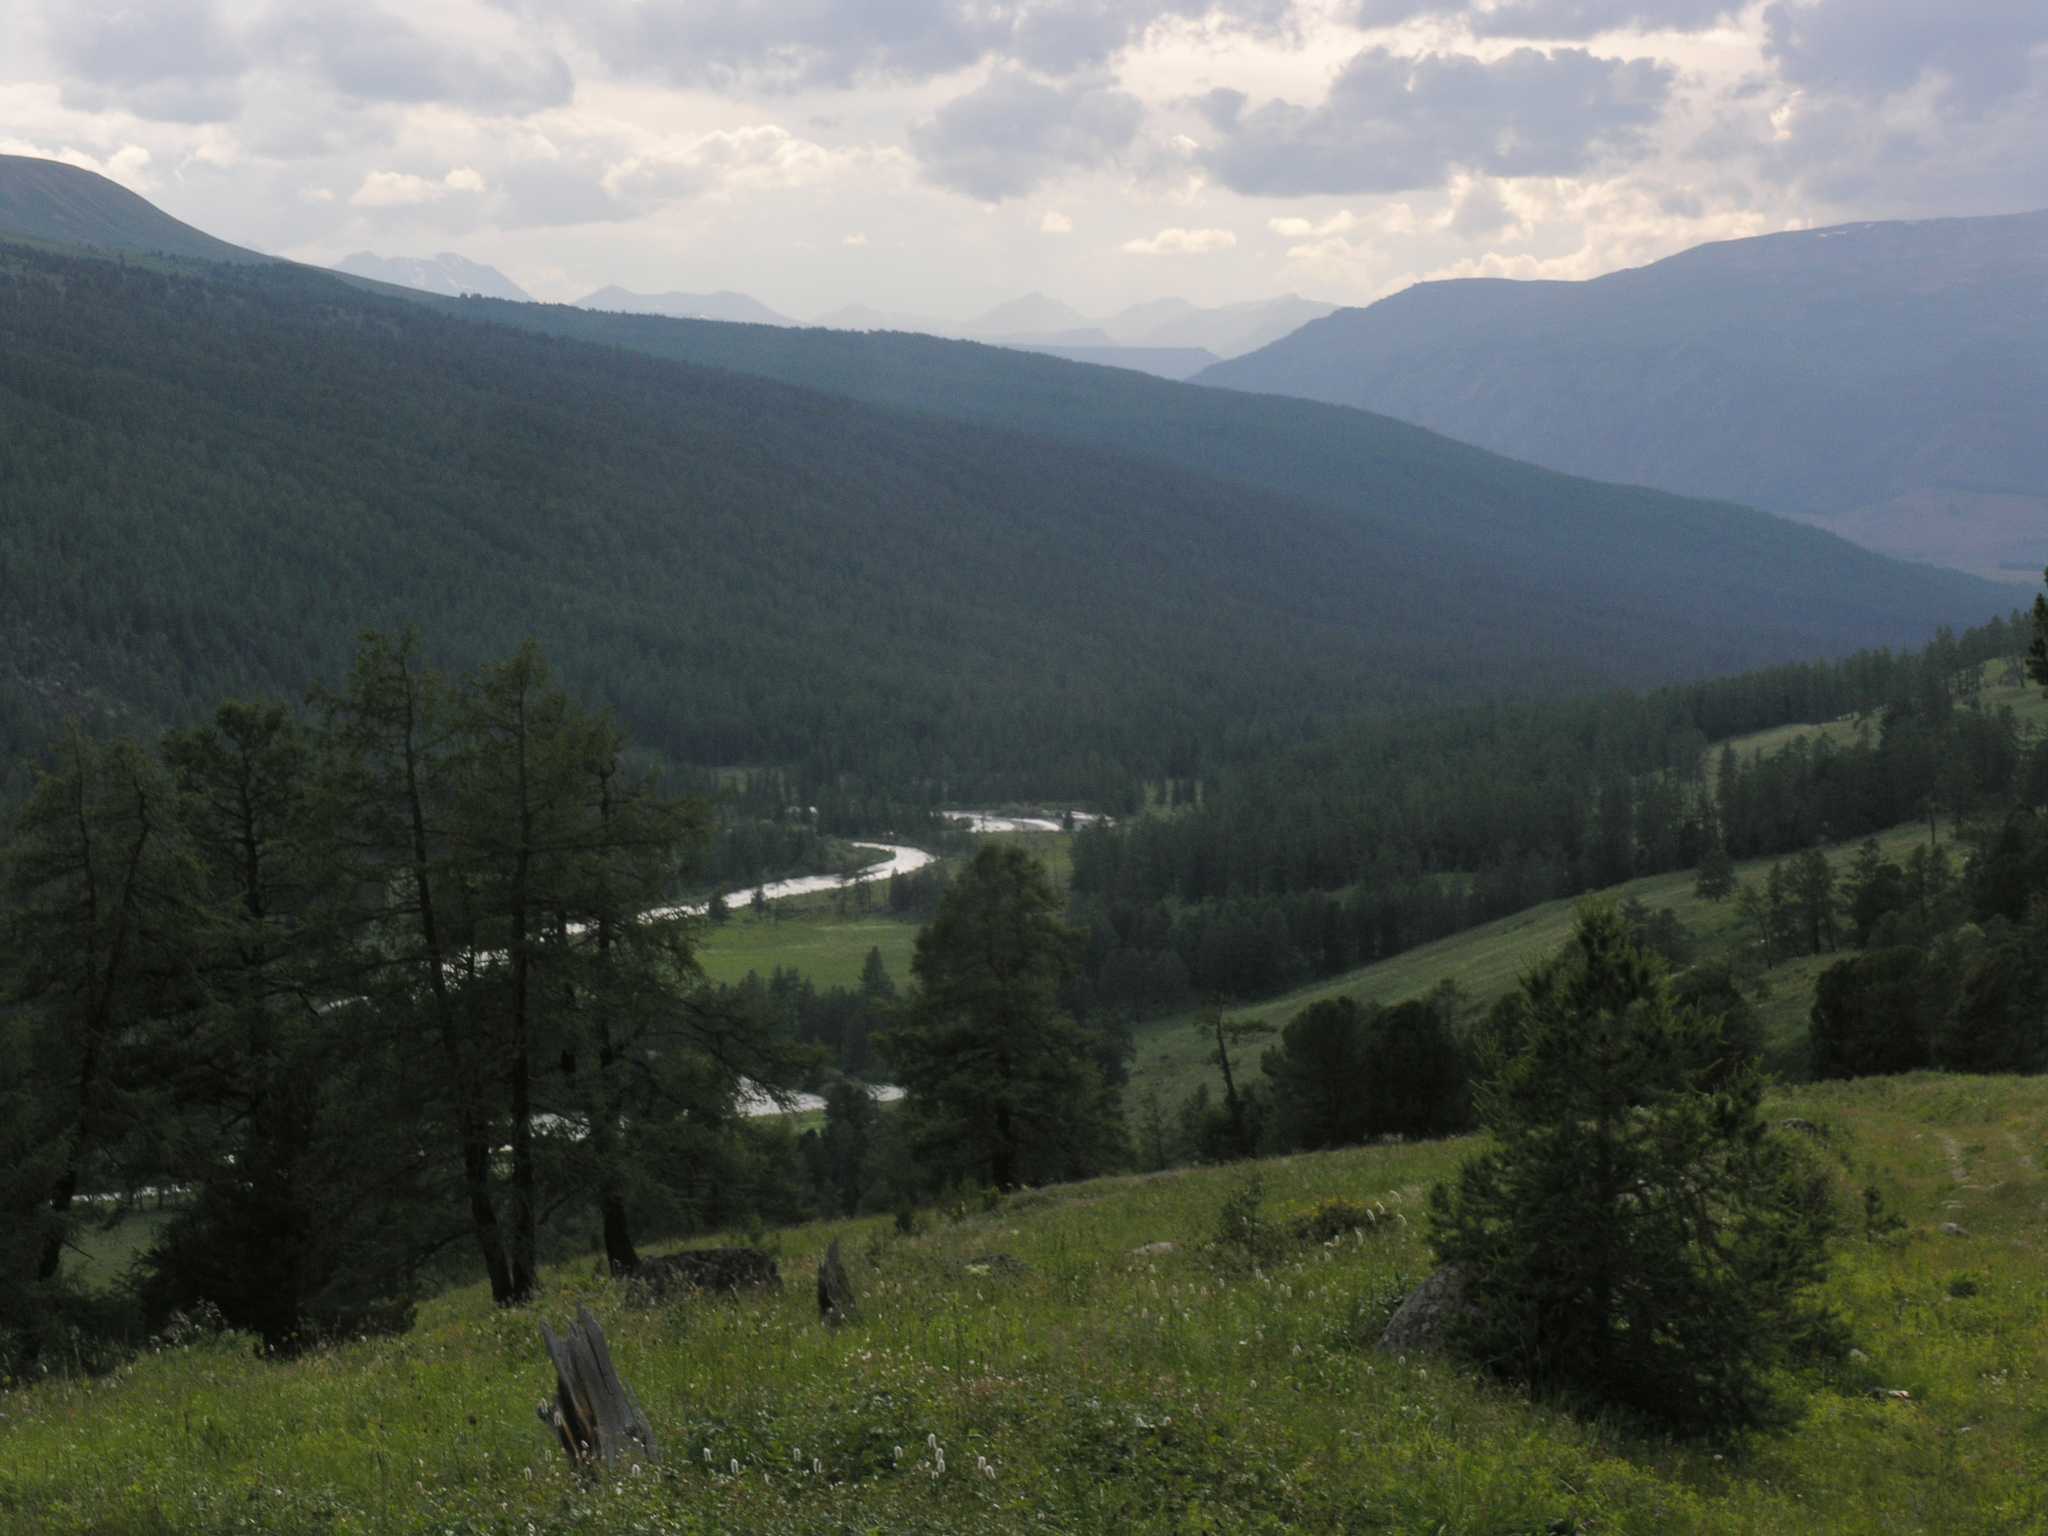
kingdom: Plantae
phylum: Tracheophyta
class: Pinopsida
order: Pinales
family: Pinaceae
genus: Larix
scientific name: Larix sibirica
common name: Siberian larch
